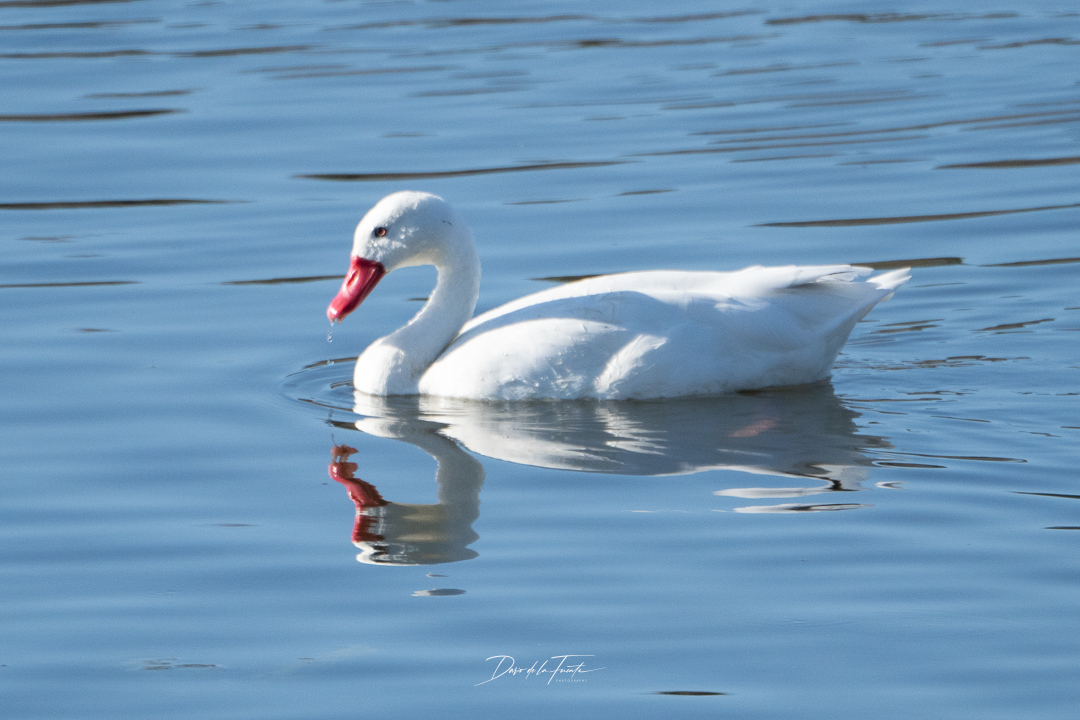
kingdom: Animalia
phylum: Chordata
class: Aves
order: Anseriformes
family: Anatidae
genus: Coscoroba
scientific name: Coscoroba coscoroba
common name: Coscoroba swan
